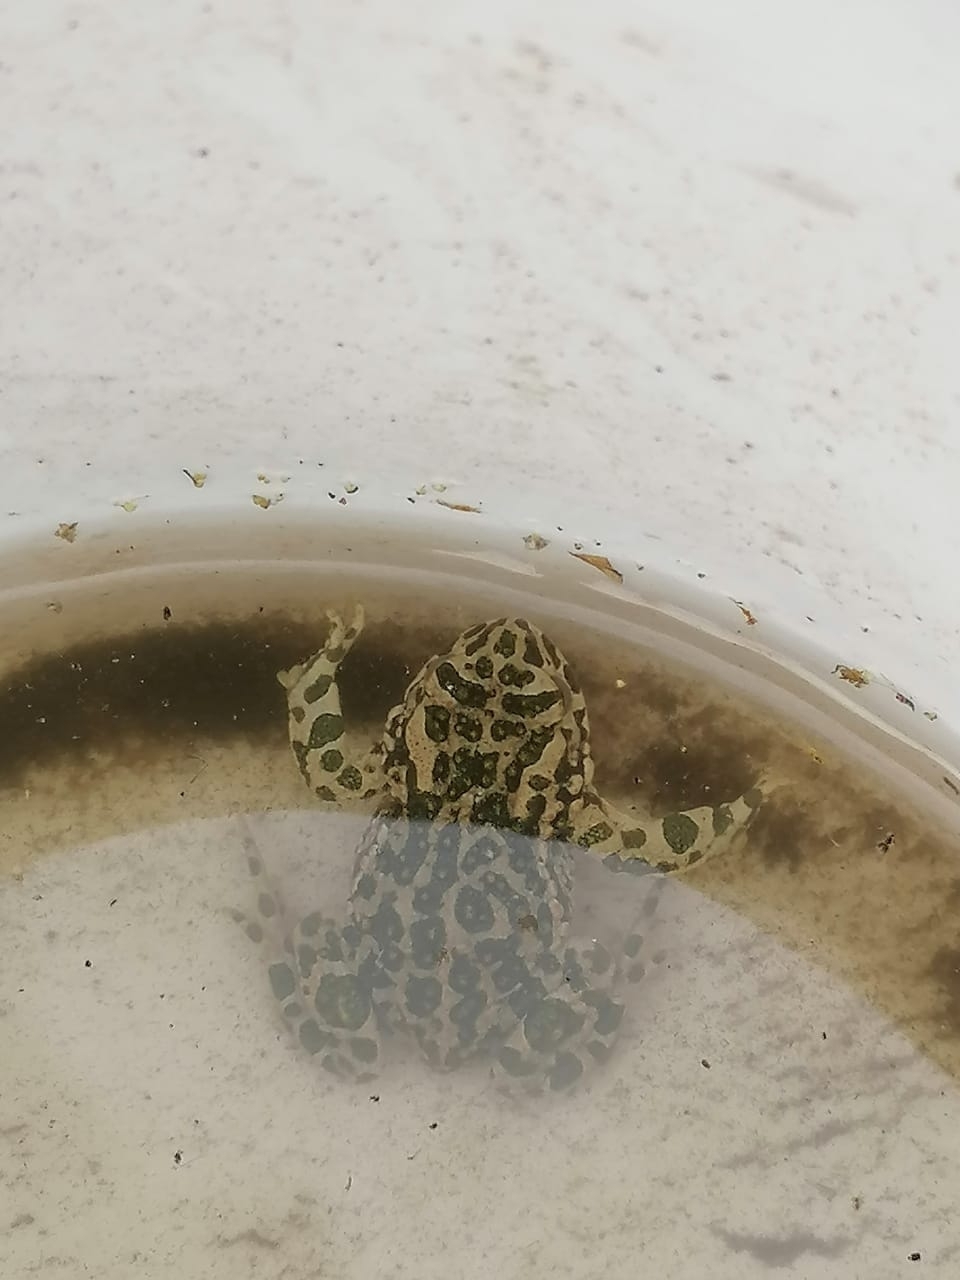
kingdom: Animalia
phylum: Chordata
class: Amphibia
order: Anura
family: Bufonidae
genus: Bufotes
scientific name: Bufotes viridis
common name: European green toad
